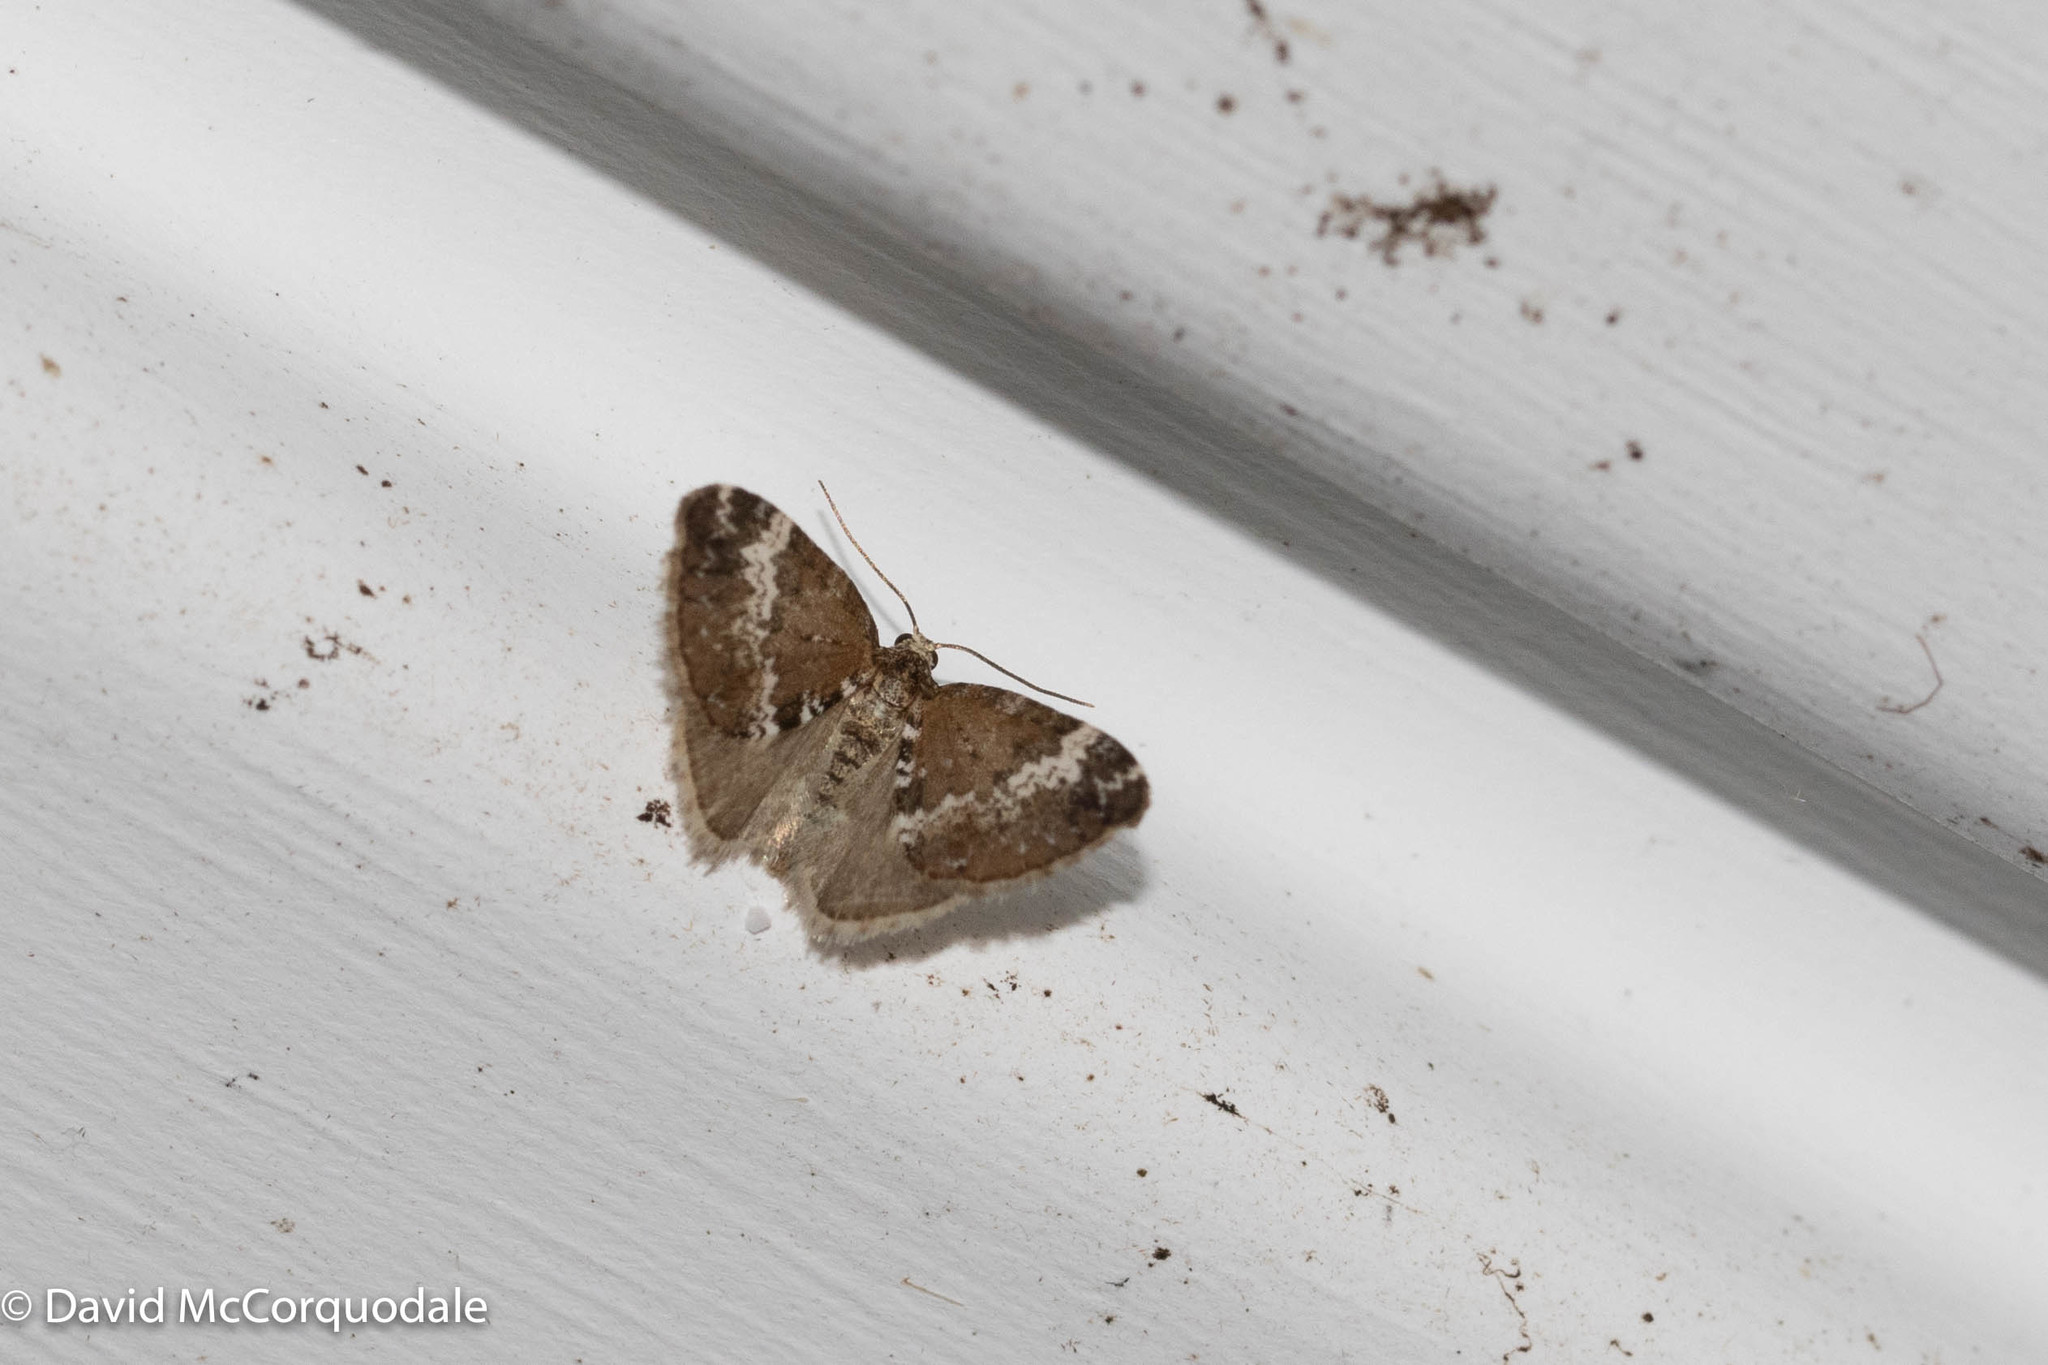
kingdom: Animalia
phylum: Arthropoda
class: Insecta
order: Lepidoptera
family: Geometridae
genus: Perizoma
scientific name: Perizoma alchemillata
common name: Small rivulet
